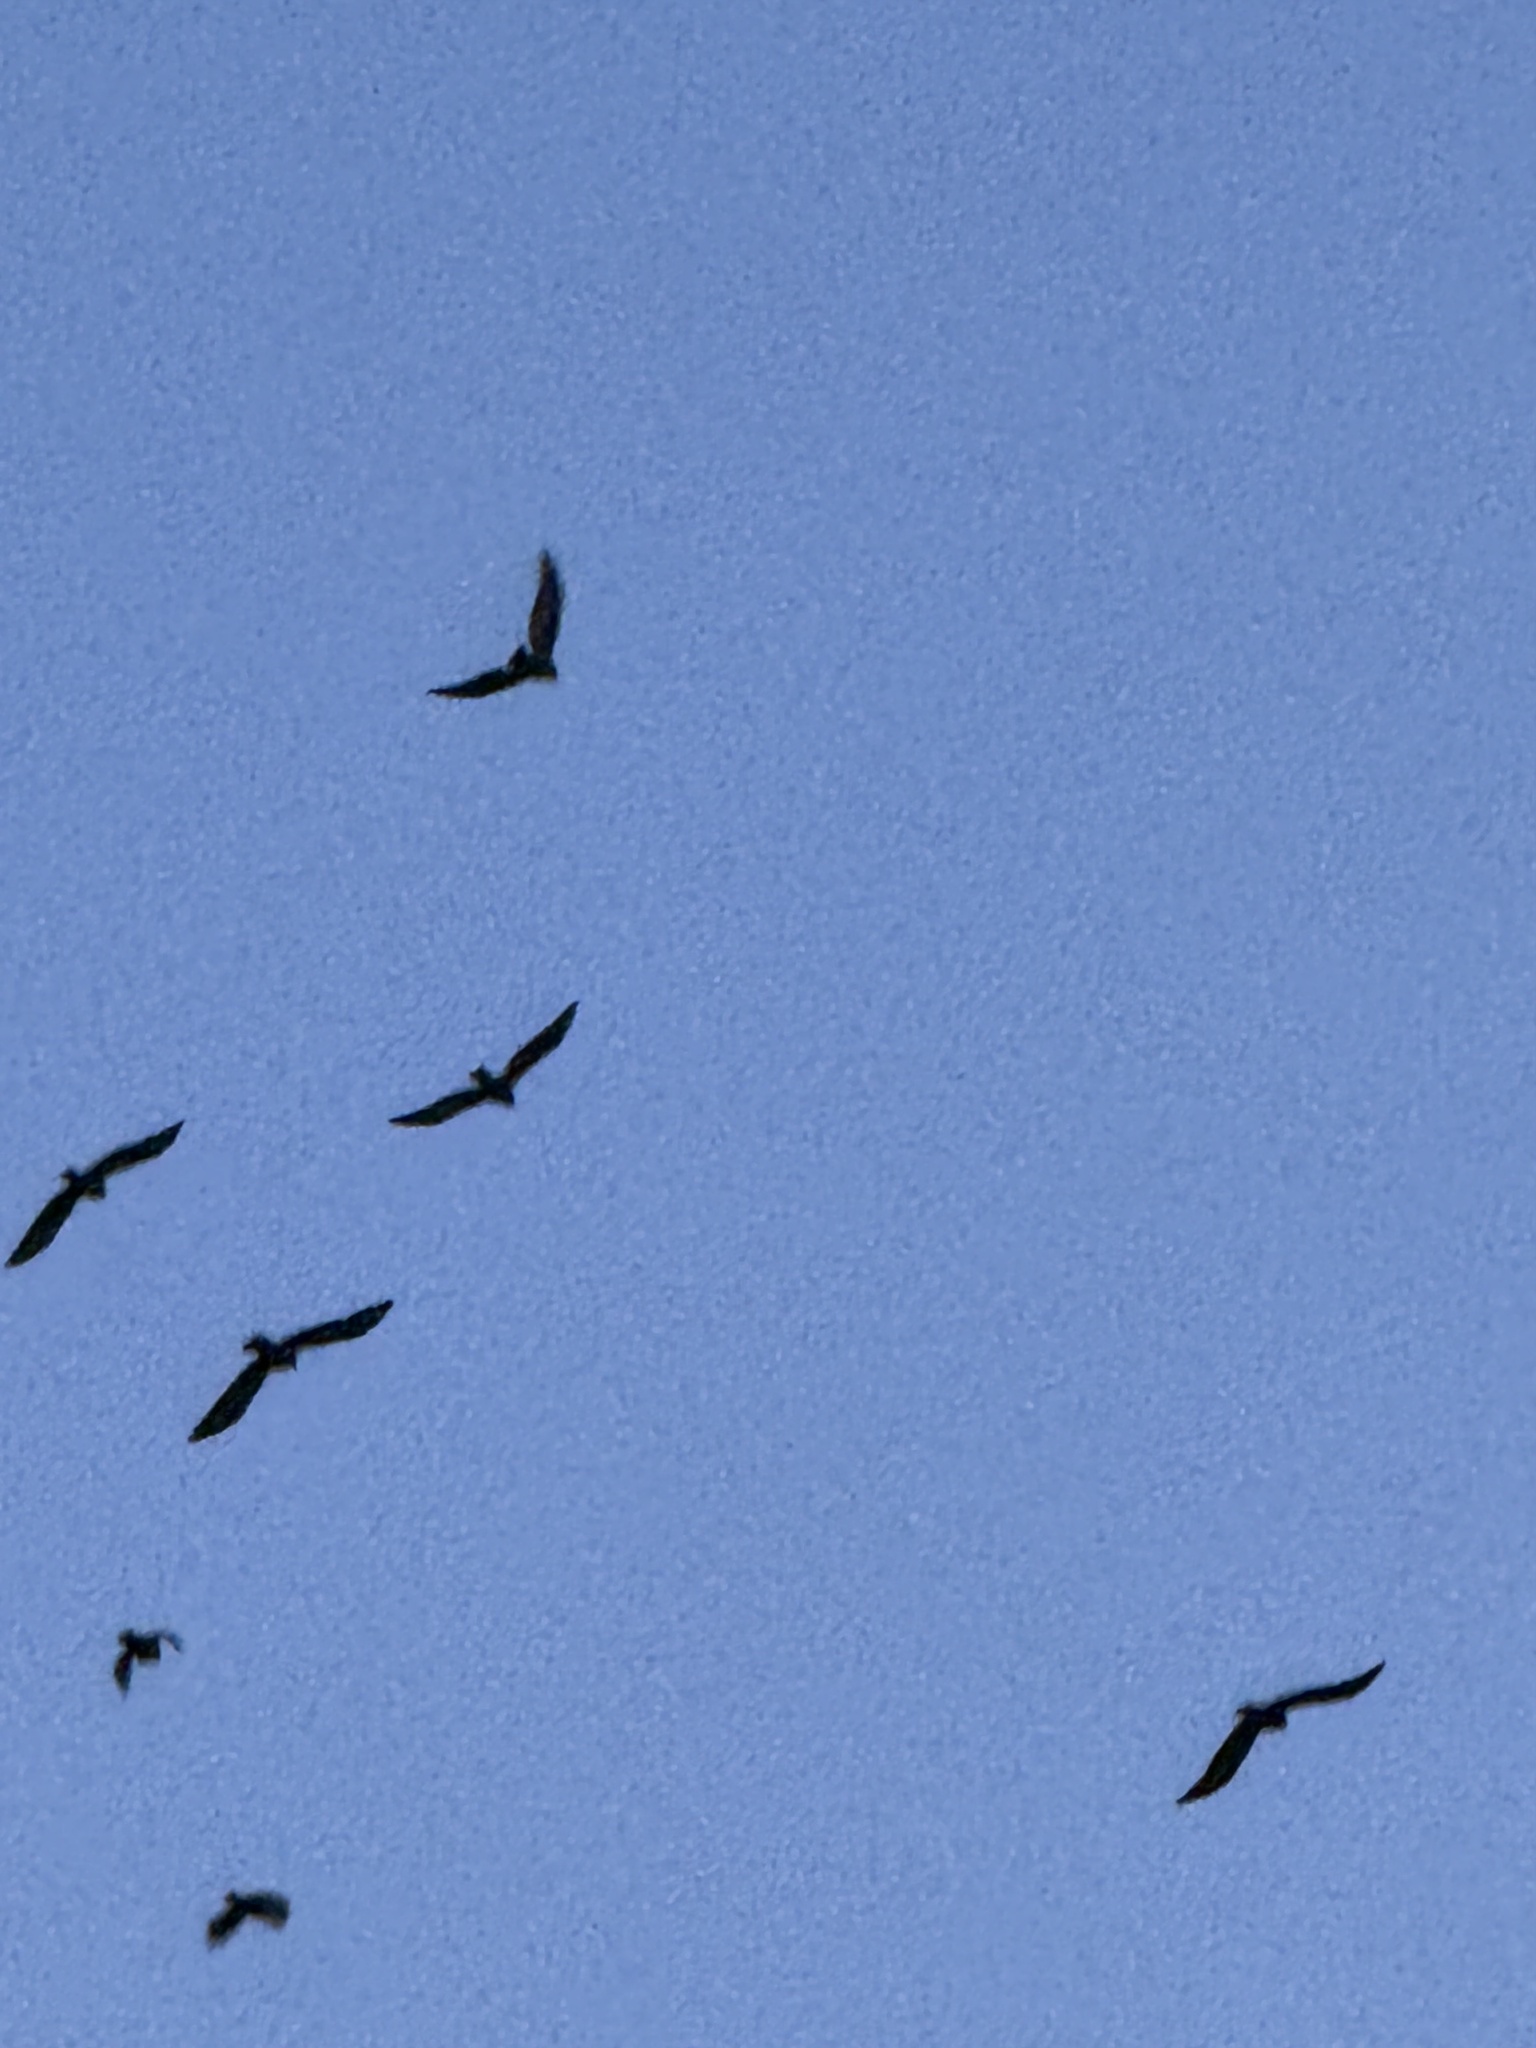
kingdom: Animalia
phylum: Chordata
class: Aves
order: Passeriformes
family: Corvidae
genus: Corvus
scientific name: Corvus brachyrhynchos
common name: American crow
